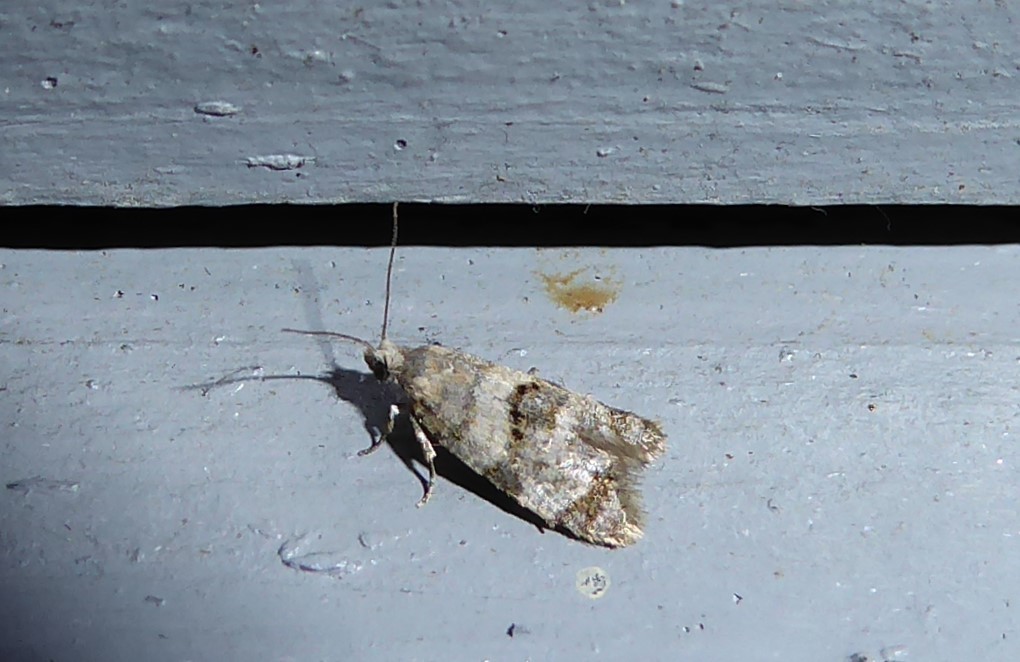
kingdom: Animalia
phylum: Arthropoda
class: Insecta
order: Lepidoptera
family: Tortricidae
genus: Dipterina
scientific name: Dipterina imbriferana
